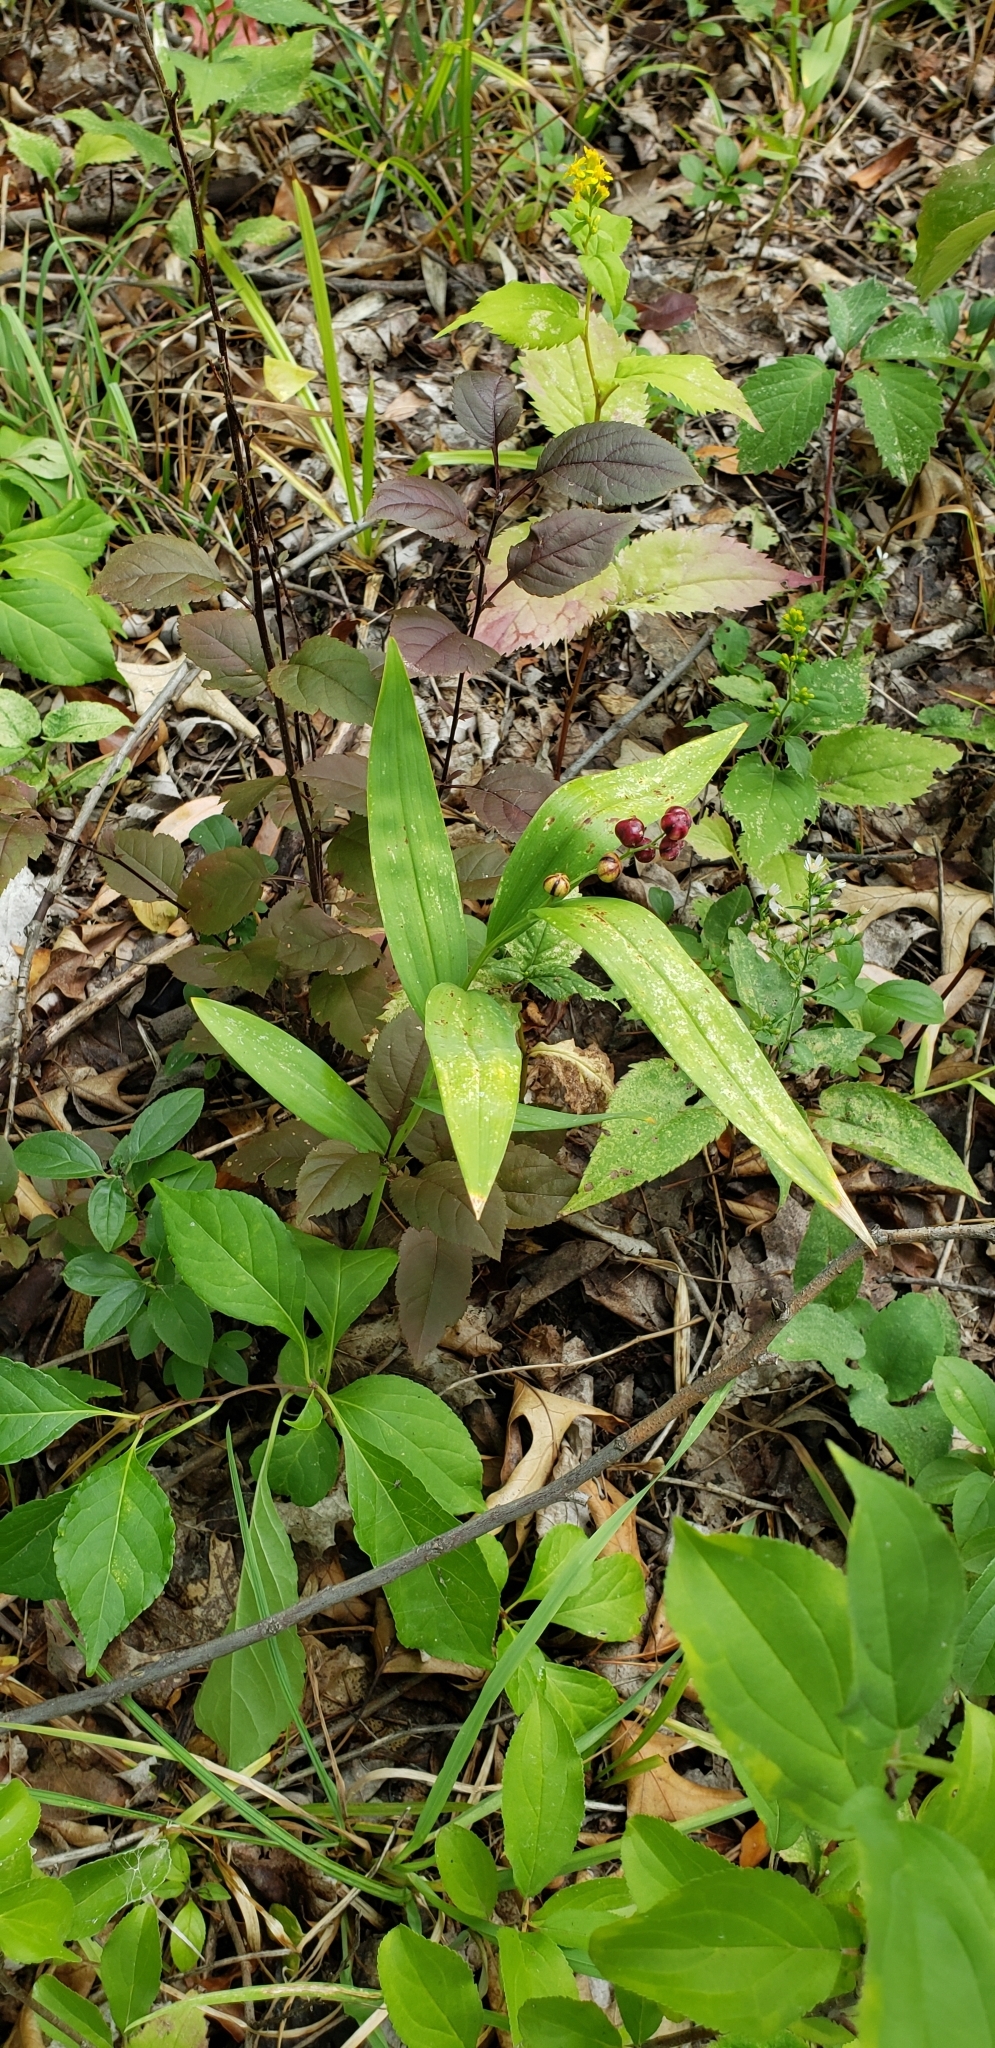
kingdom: Plantae
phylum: Tracheophyta
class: Liliopsida
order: Asparagales
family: Asparagaceae
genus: Maianthemum
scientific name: Maianthemum stellatum
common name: Little false solomon's seal
